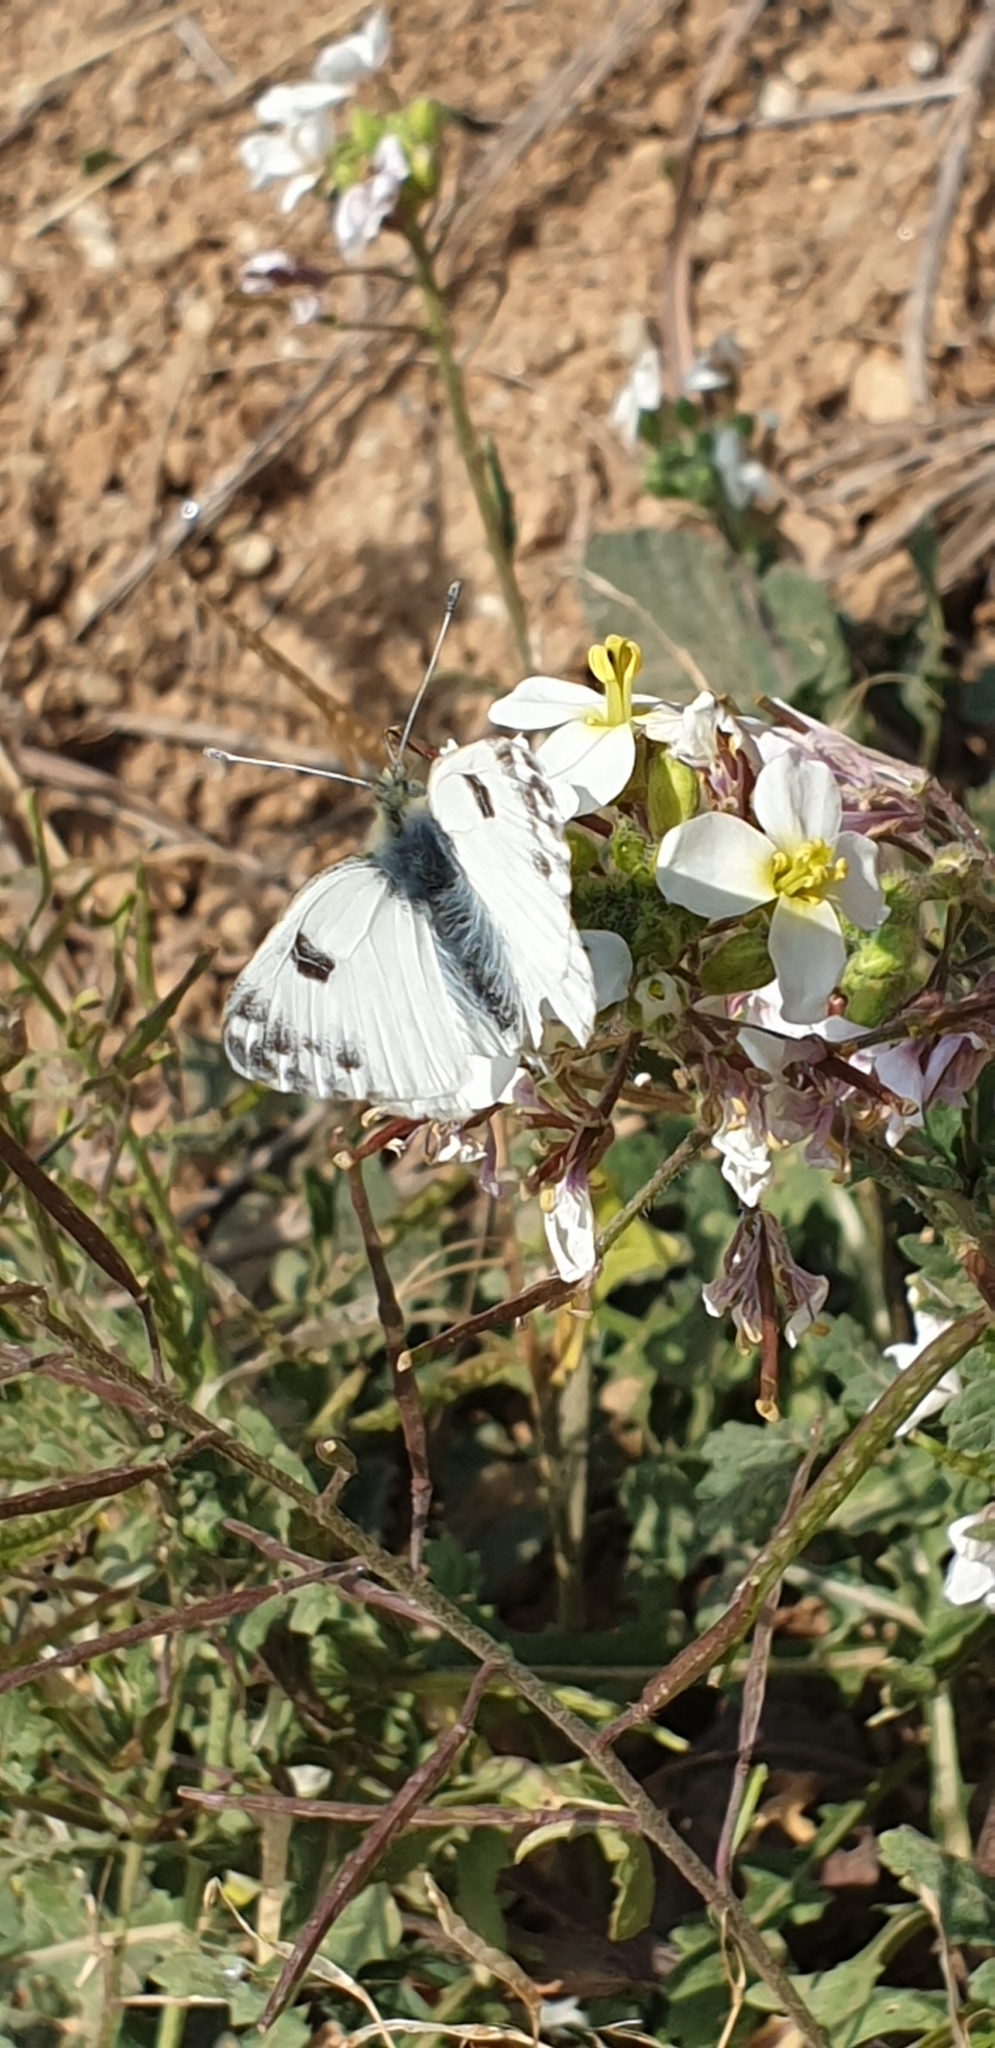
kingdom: Animalia
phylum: Arthropoda
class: Insecta
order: Lepidoptera
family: Pieridae
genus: Pontia
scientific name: Pontia daplidice
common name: Bath white
